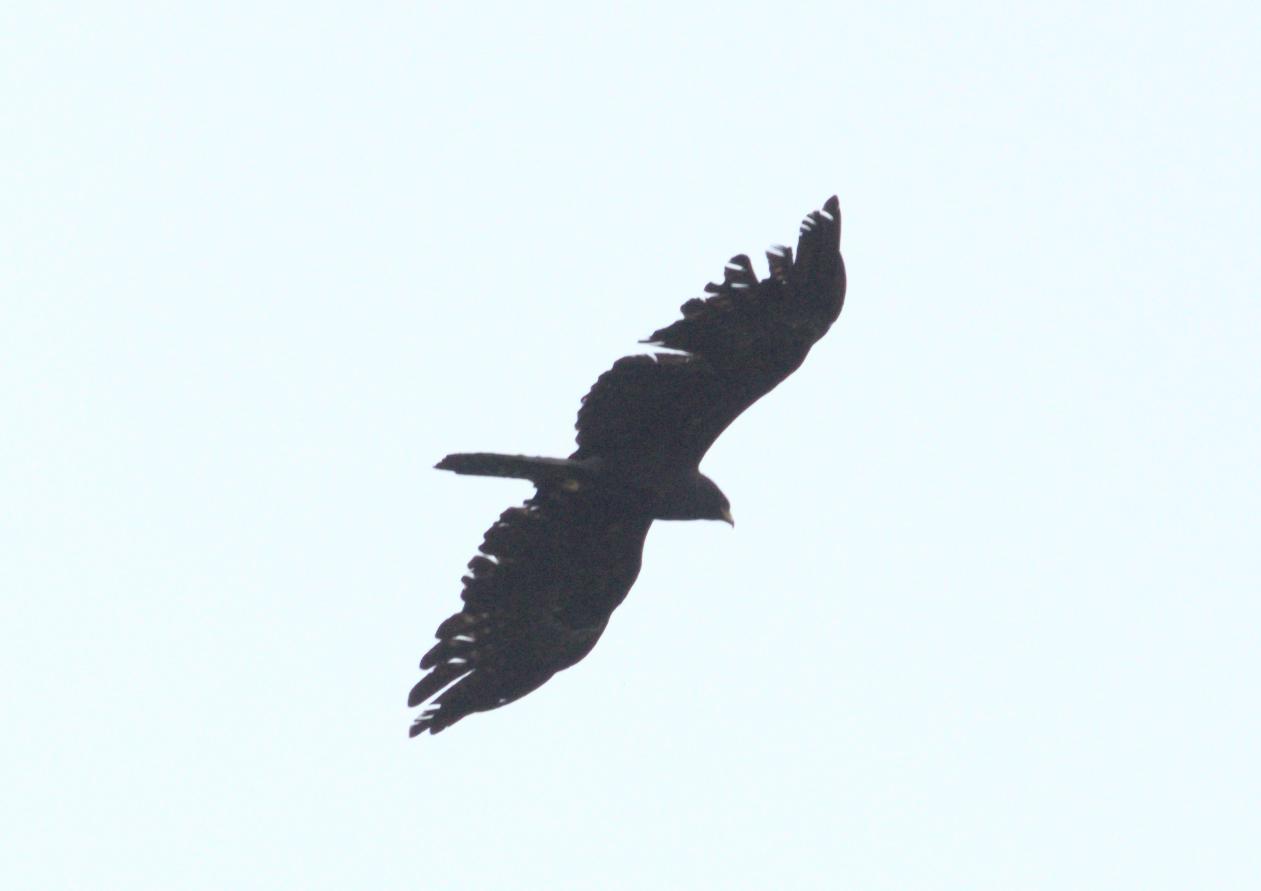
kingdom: Animalia
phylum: Chordata
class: Aves
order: Accipitriformes
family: Accipitridae
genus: Ictinaetus
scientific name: Ictinaetus malayensis
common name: Black eagle
